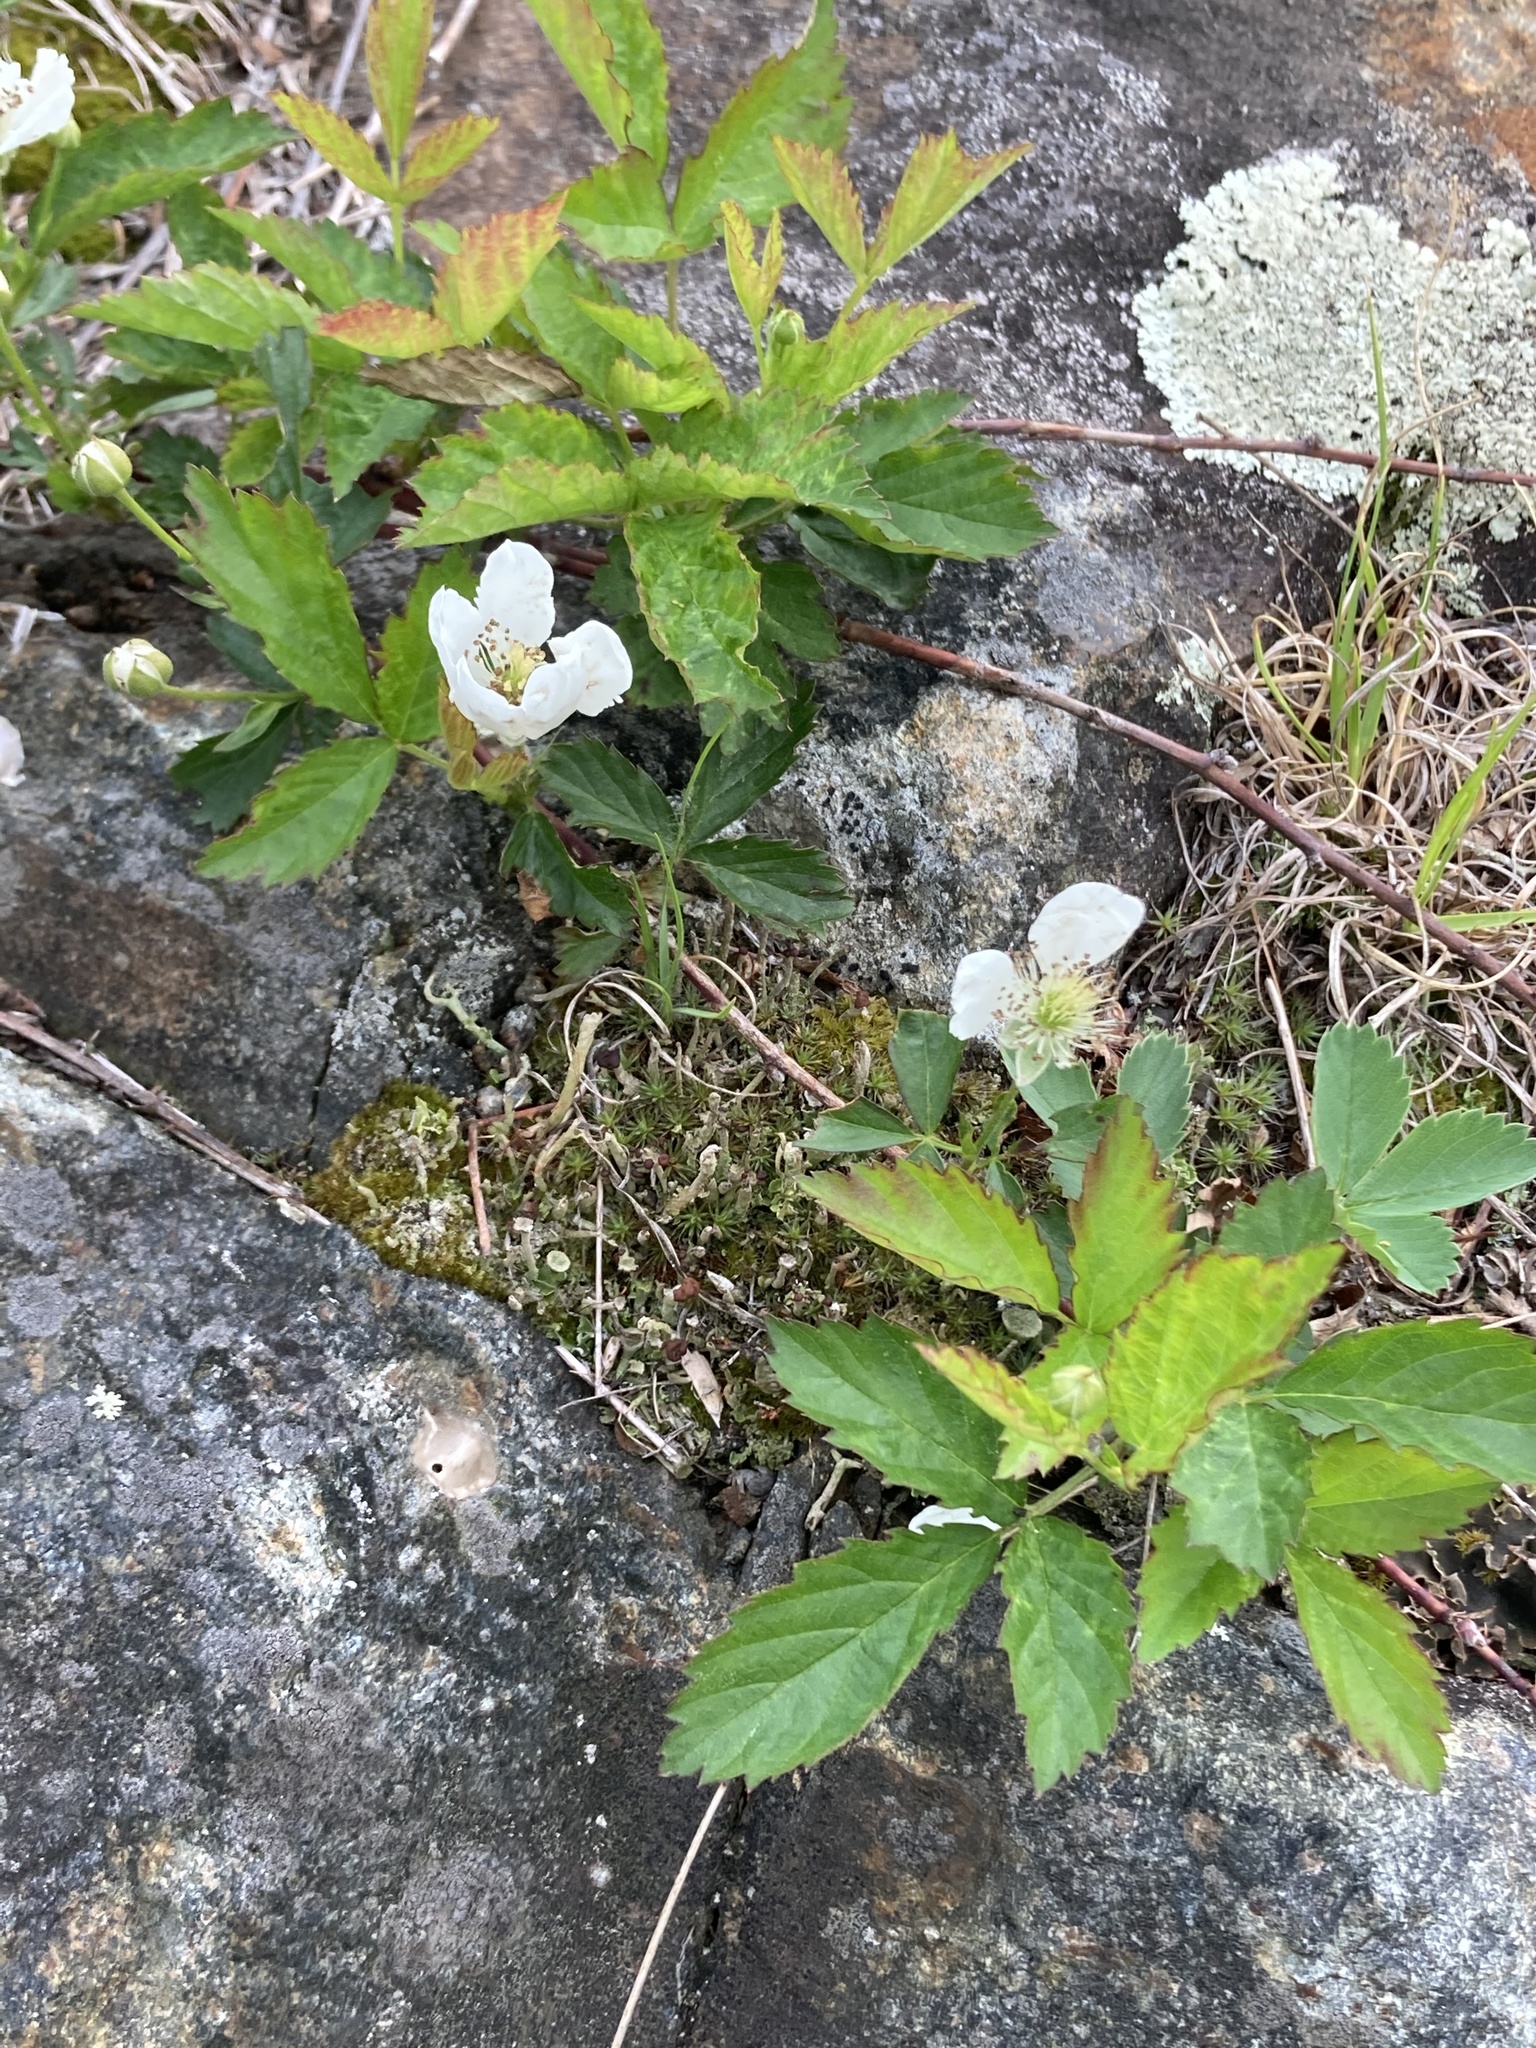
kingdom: Plantae
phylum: Tracheophyta
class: Magnoliopsida
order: Rosales
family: Rosaceae
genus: Rubus
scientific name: Rubus flagellaris
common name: American dewberry
